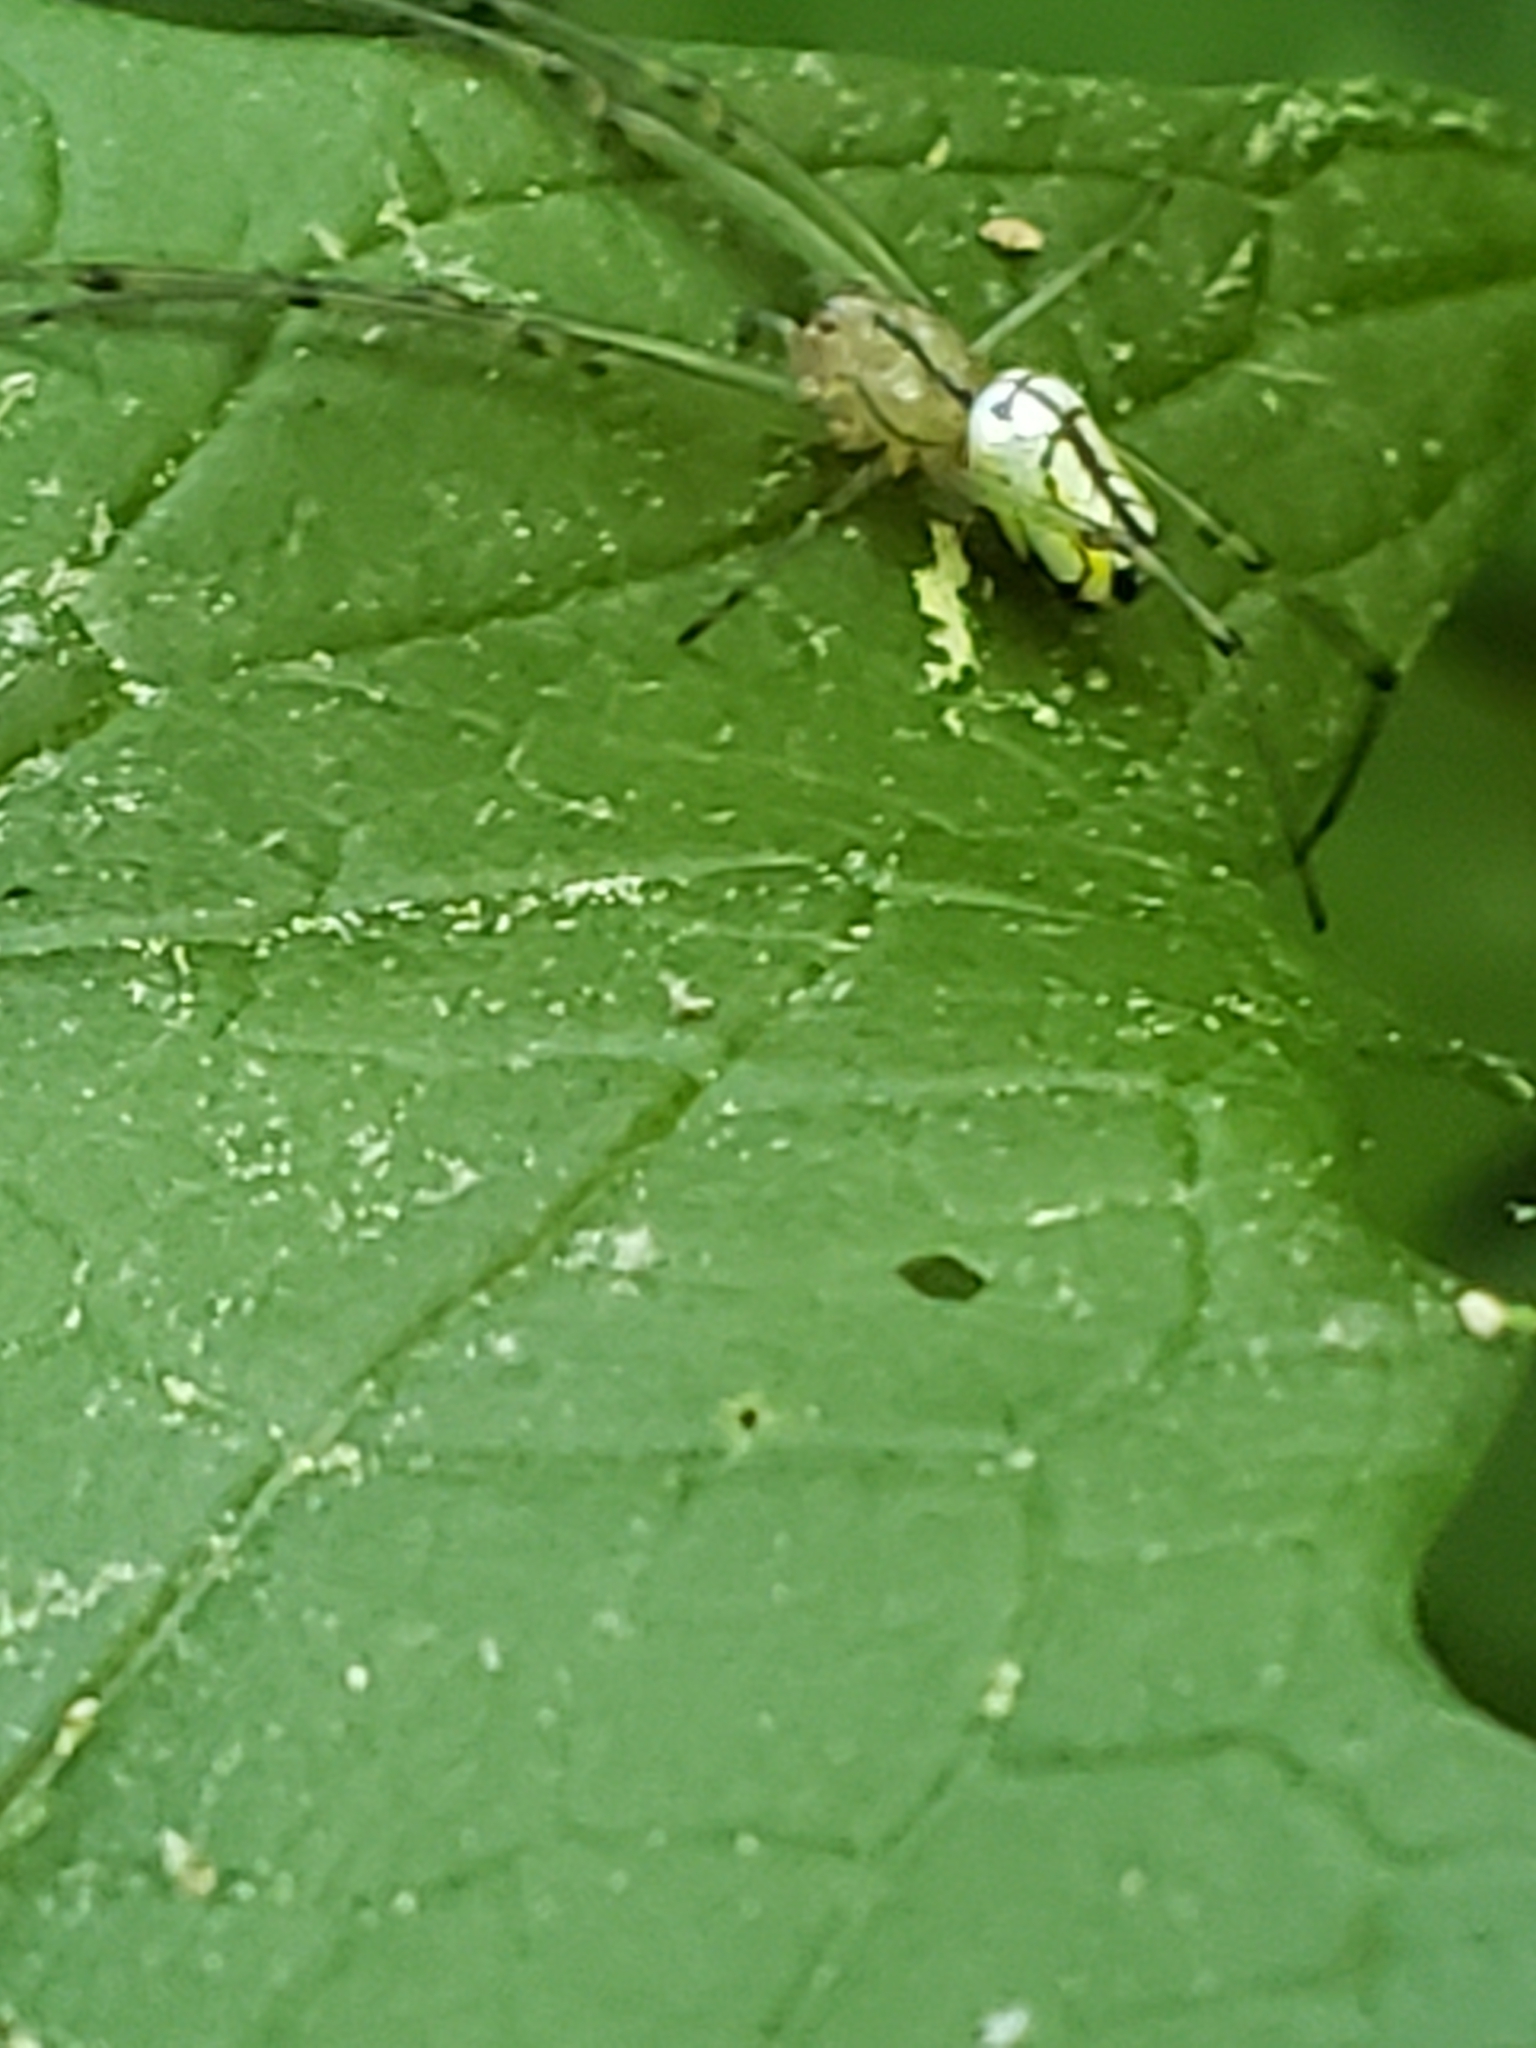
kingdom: Animalia
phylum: Arthropoda
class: Arachnida
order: Araneae
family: Tetragnathidae
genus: Leucauge
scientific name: Leucauge venusta
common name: Longjawed orb weavers
